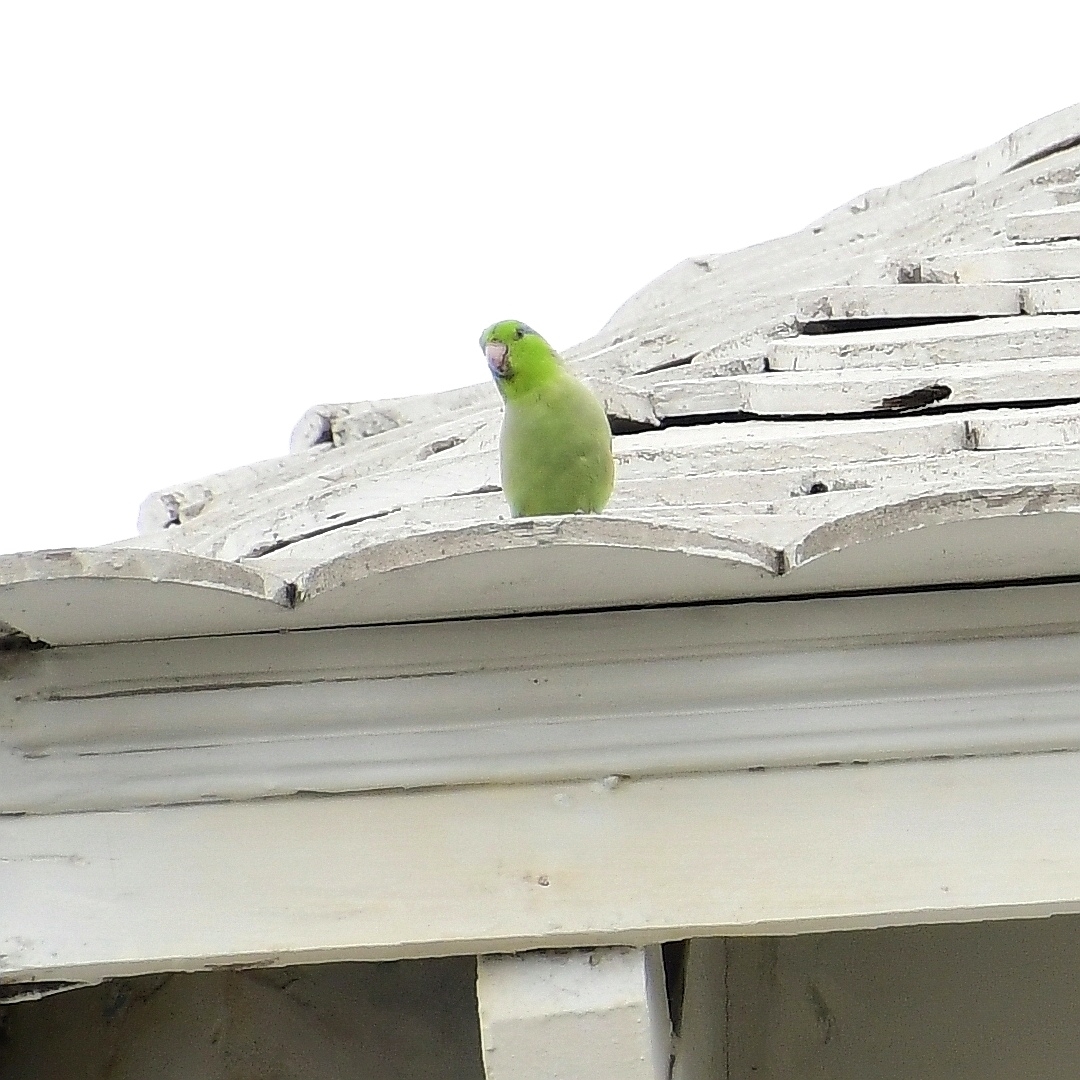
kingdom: Animalia
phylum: Chordata
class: Aves
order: Psittaciformes
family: Psittacidae
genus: Forpus
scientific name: Forpus coelestis
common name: Pacific parrotlet
